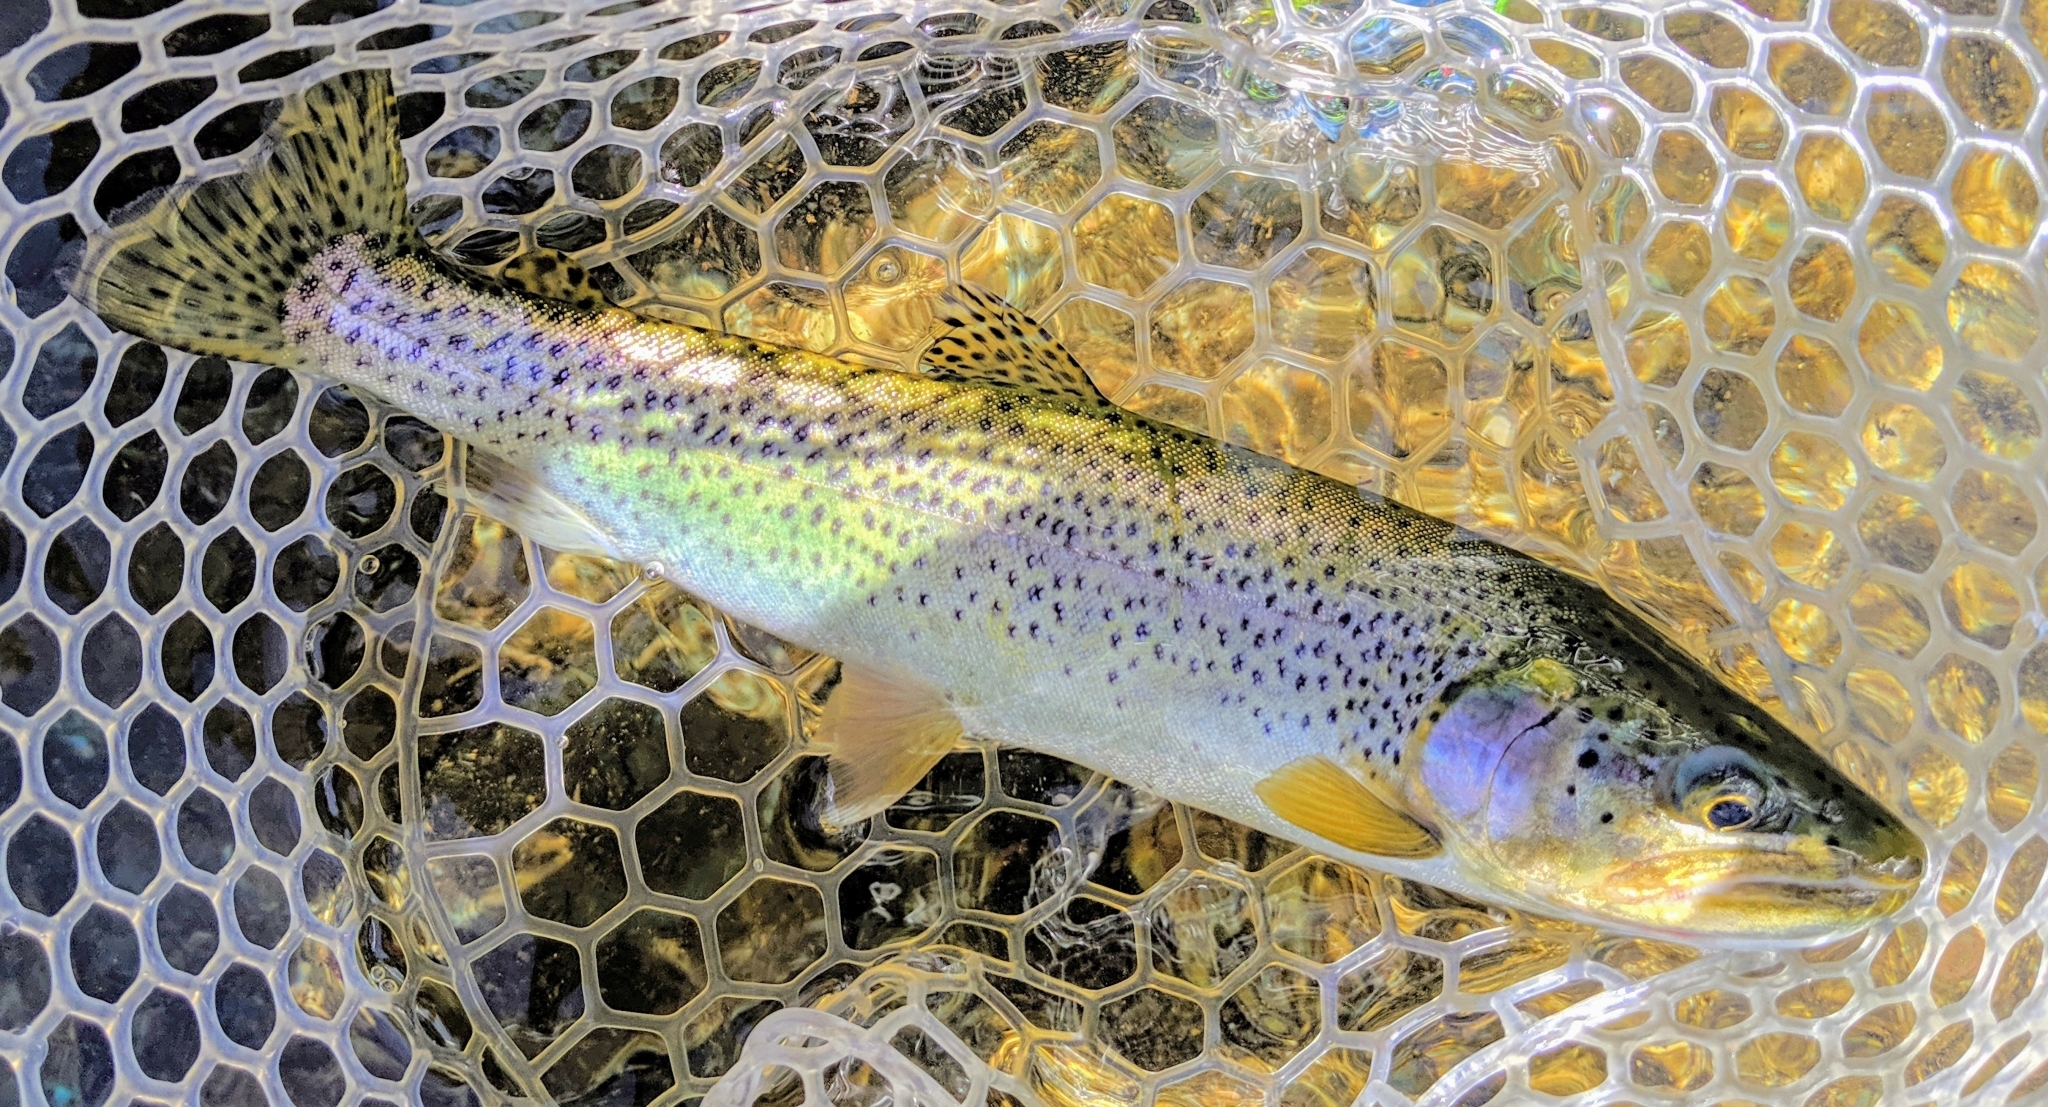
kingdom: Animalia
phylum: Chordata
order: Salmoniformes
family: Salmonidae
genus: Oncorhynchus
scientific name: Oncorhynchus clarkii
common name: Cutthroat trout
